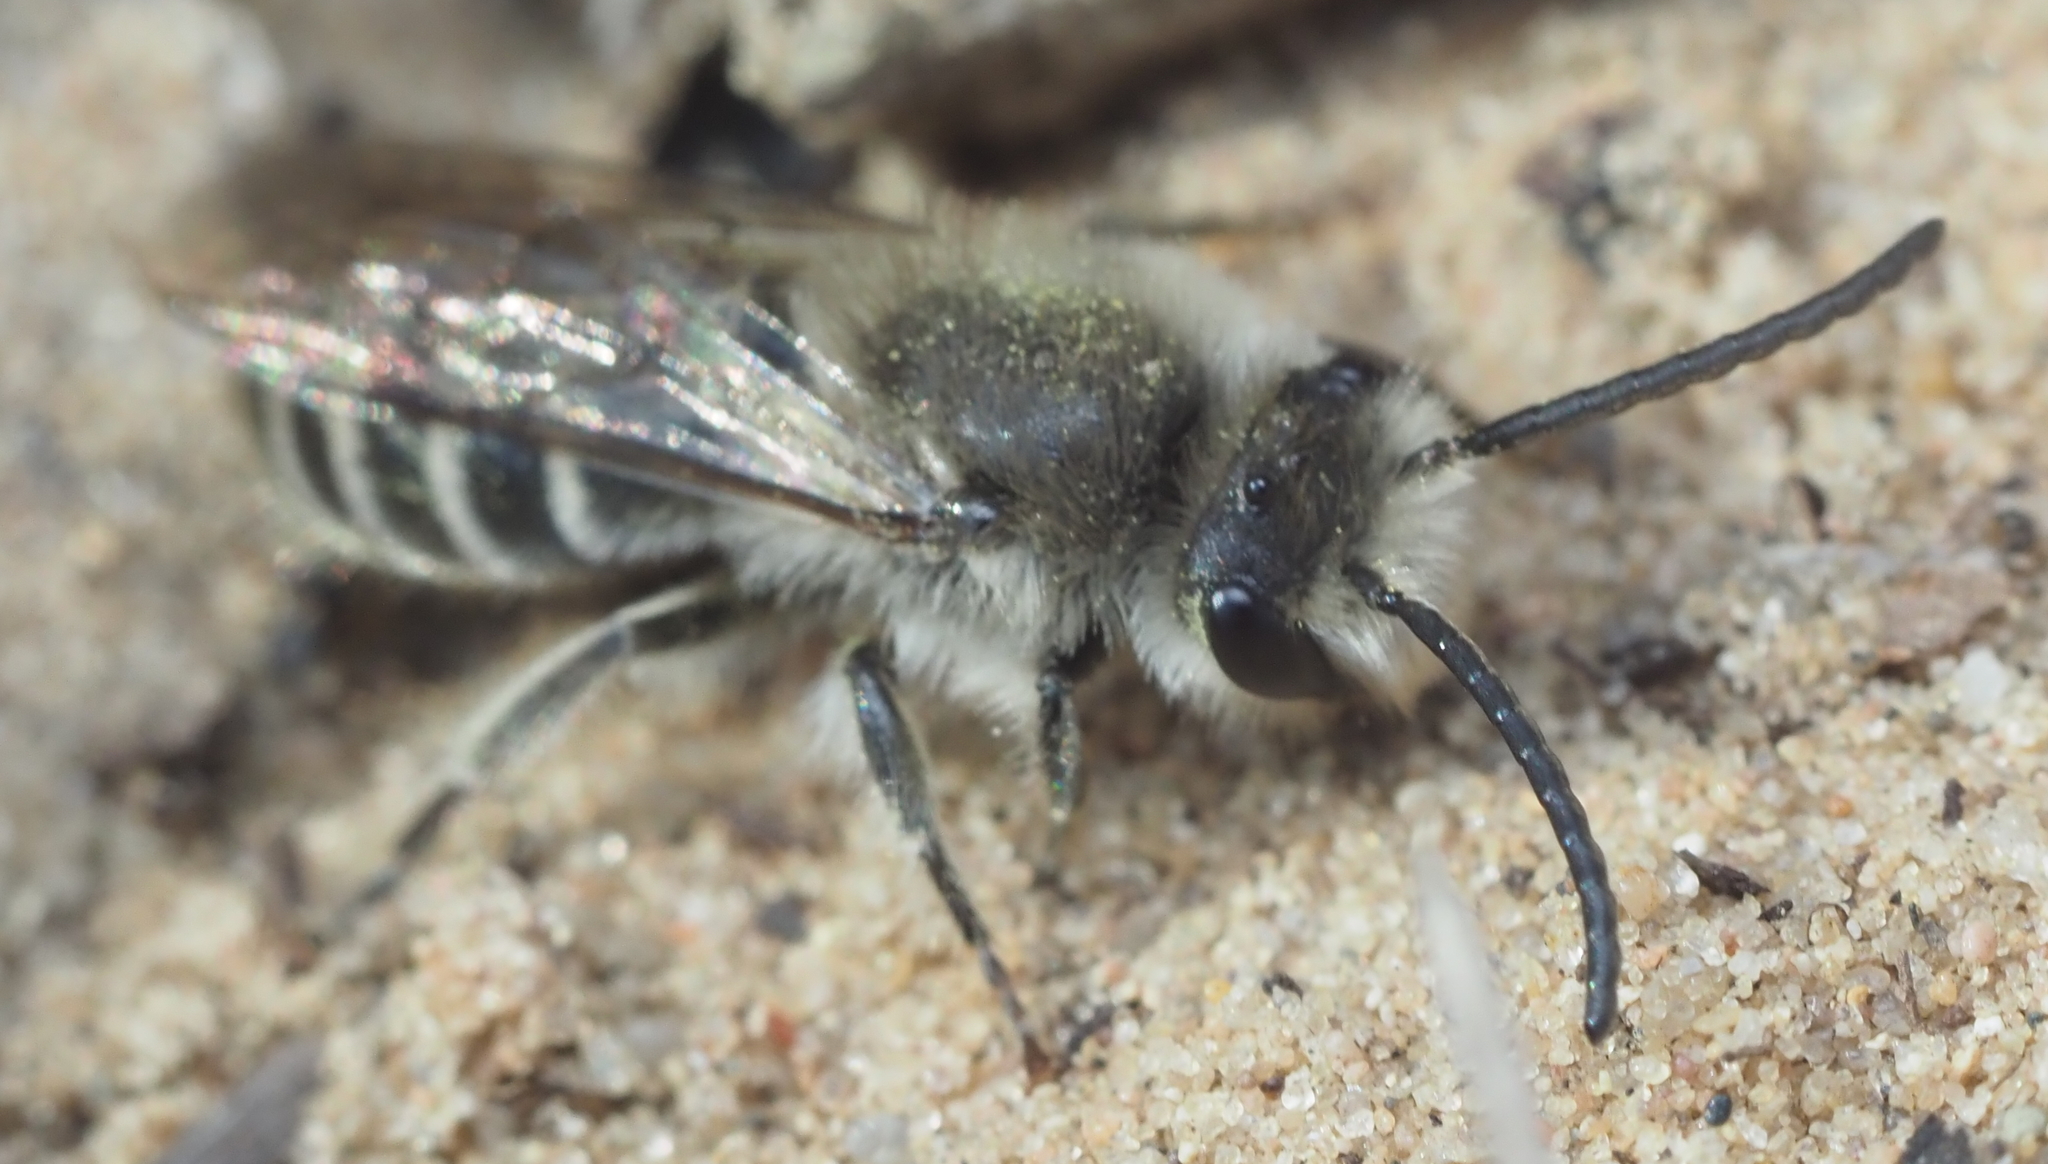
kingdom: Animalia
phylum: Arthropoda
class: Insecta
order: Hymenoptera
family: Colletidae
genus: Colletes
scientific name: Colletes inaequalis
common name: Unequal cellophane bee
